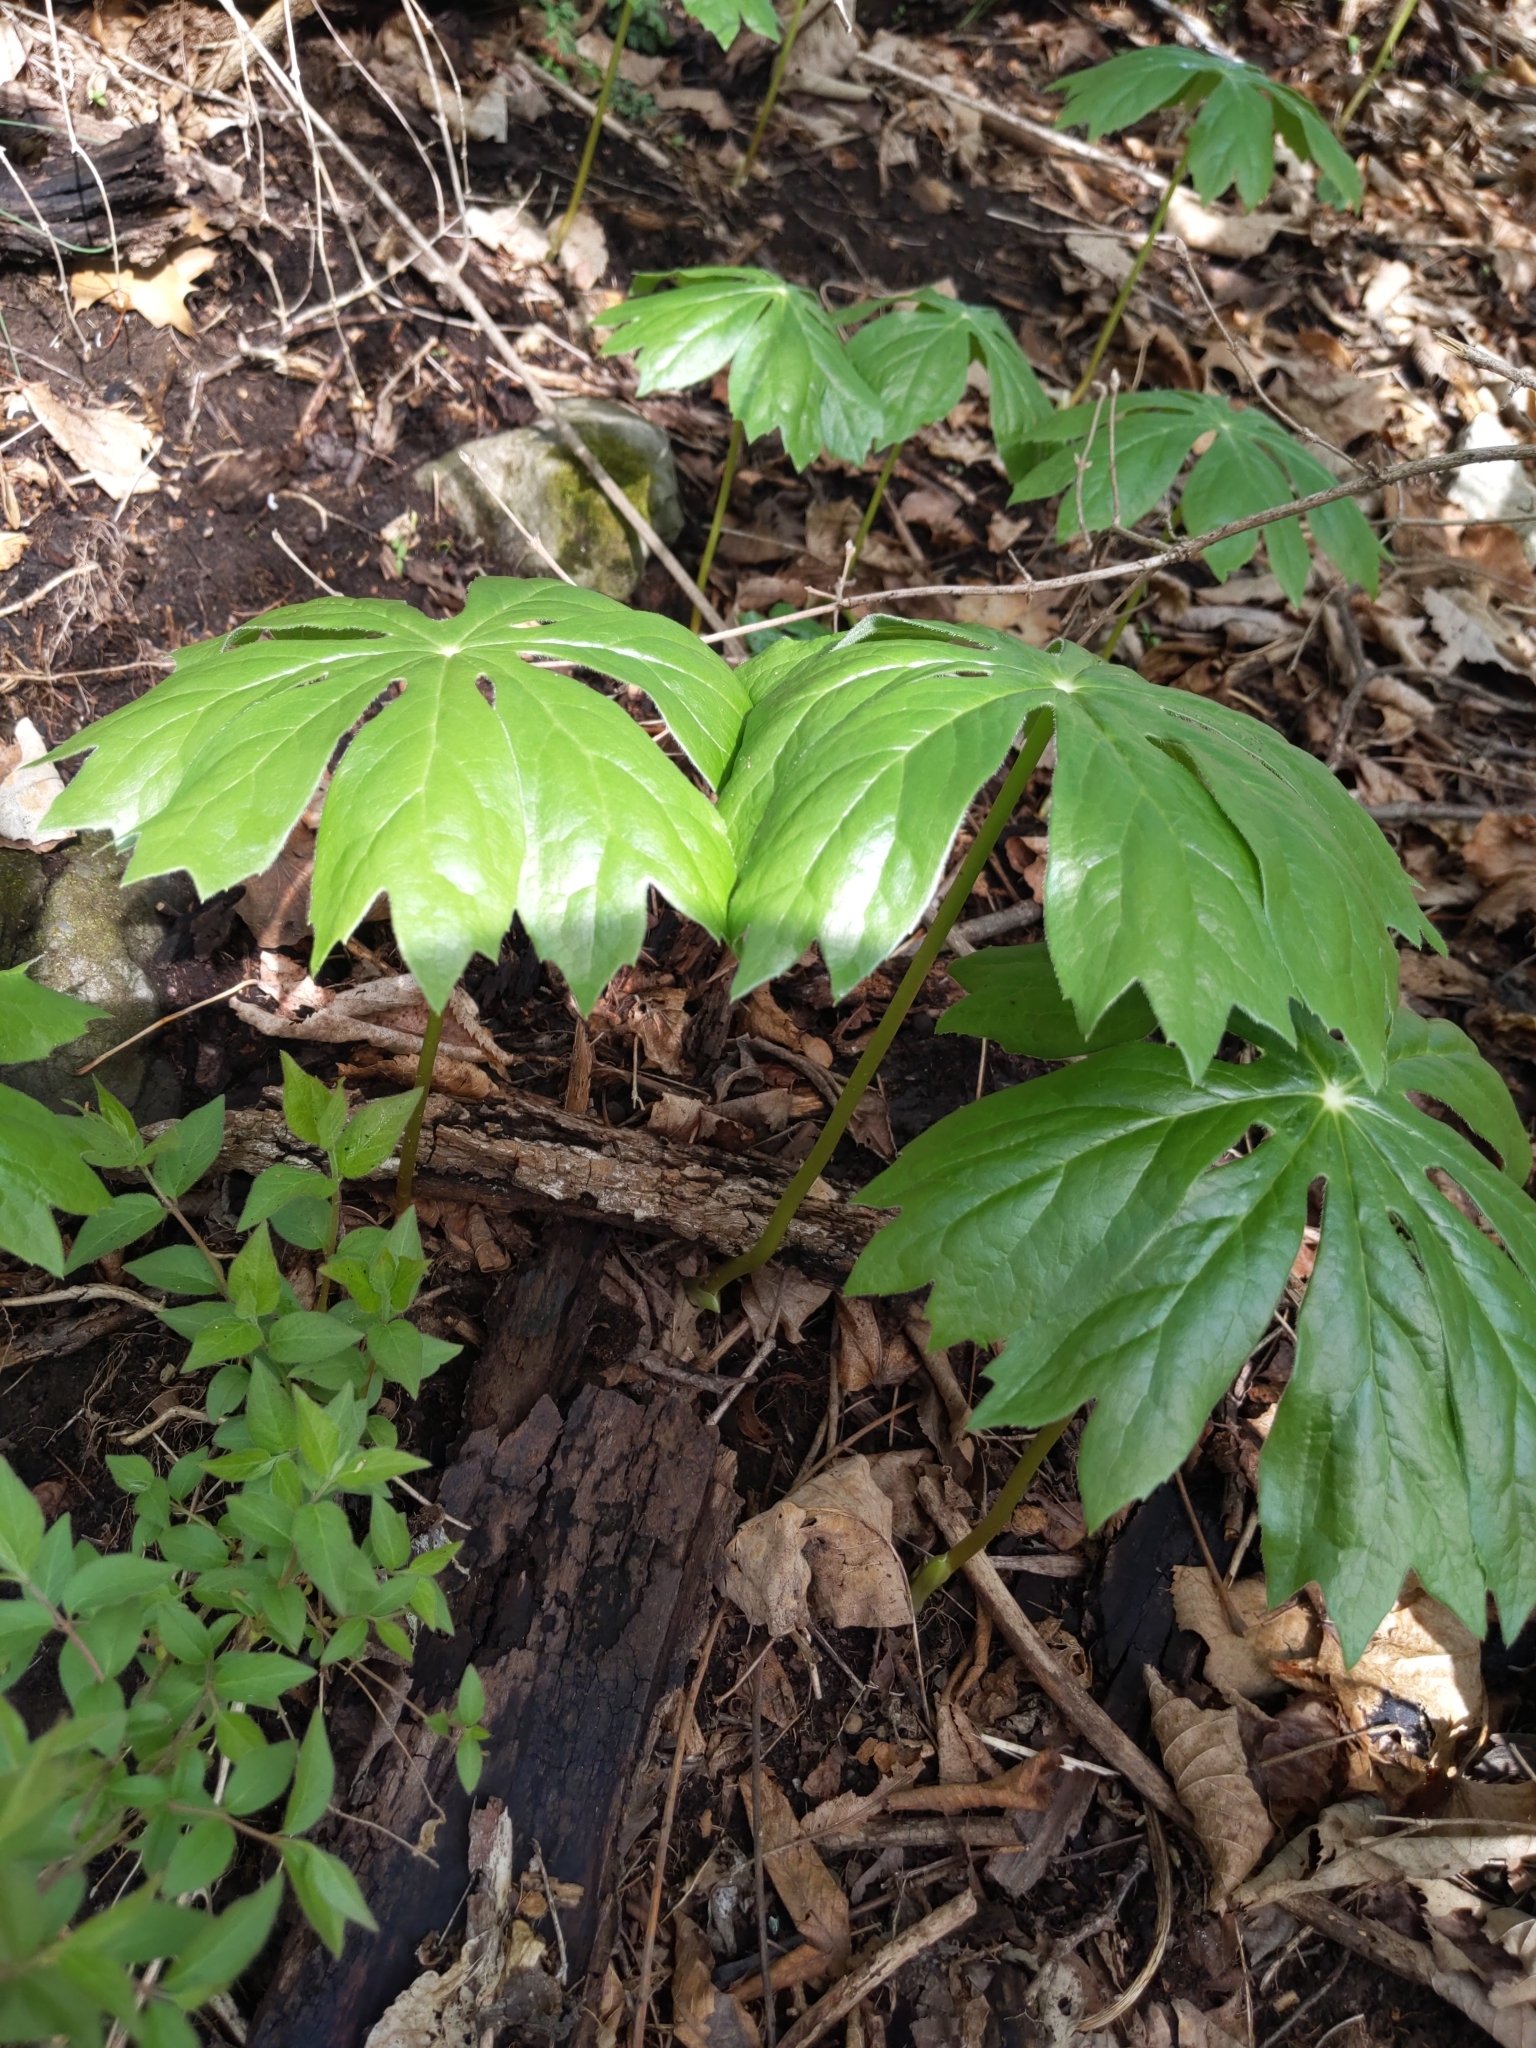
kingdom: Plantae
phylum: Tracheophyta
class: Magnoliopsida
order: Ranunculales
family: Berberidaceae
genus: Podophyllum
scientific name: Podophyllum peltatum
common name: Wild mandrake
